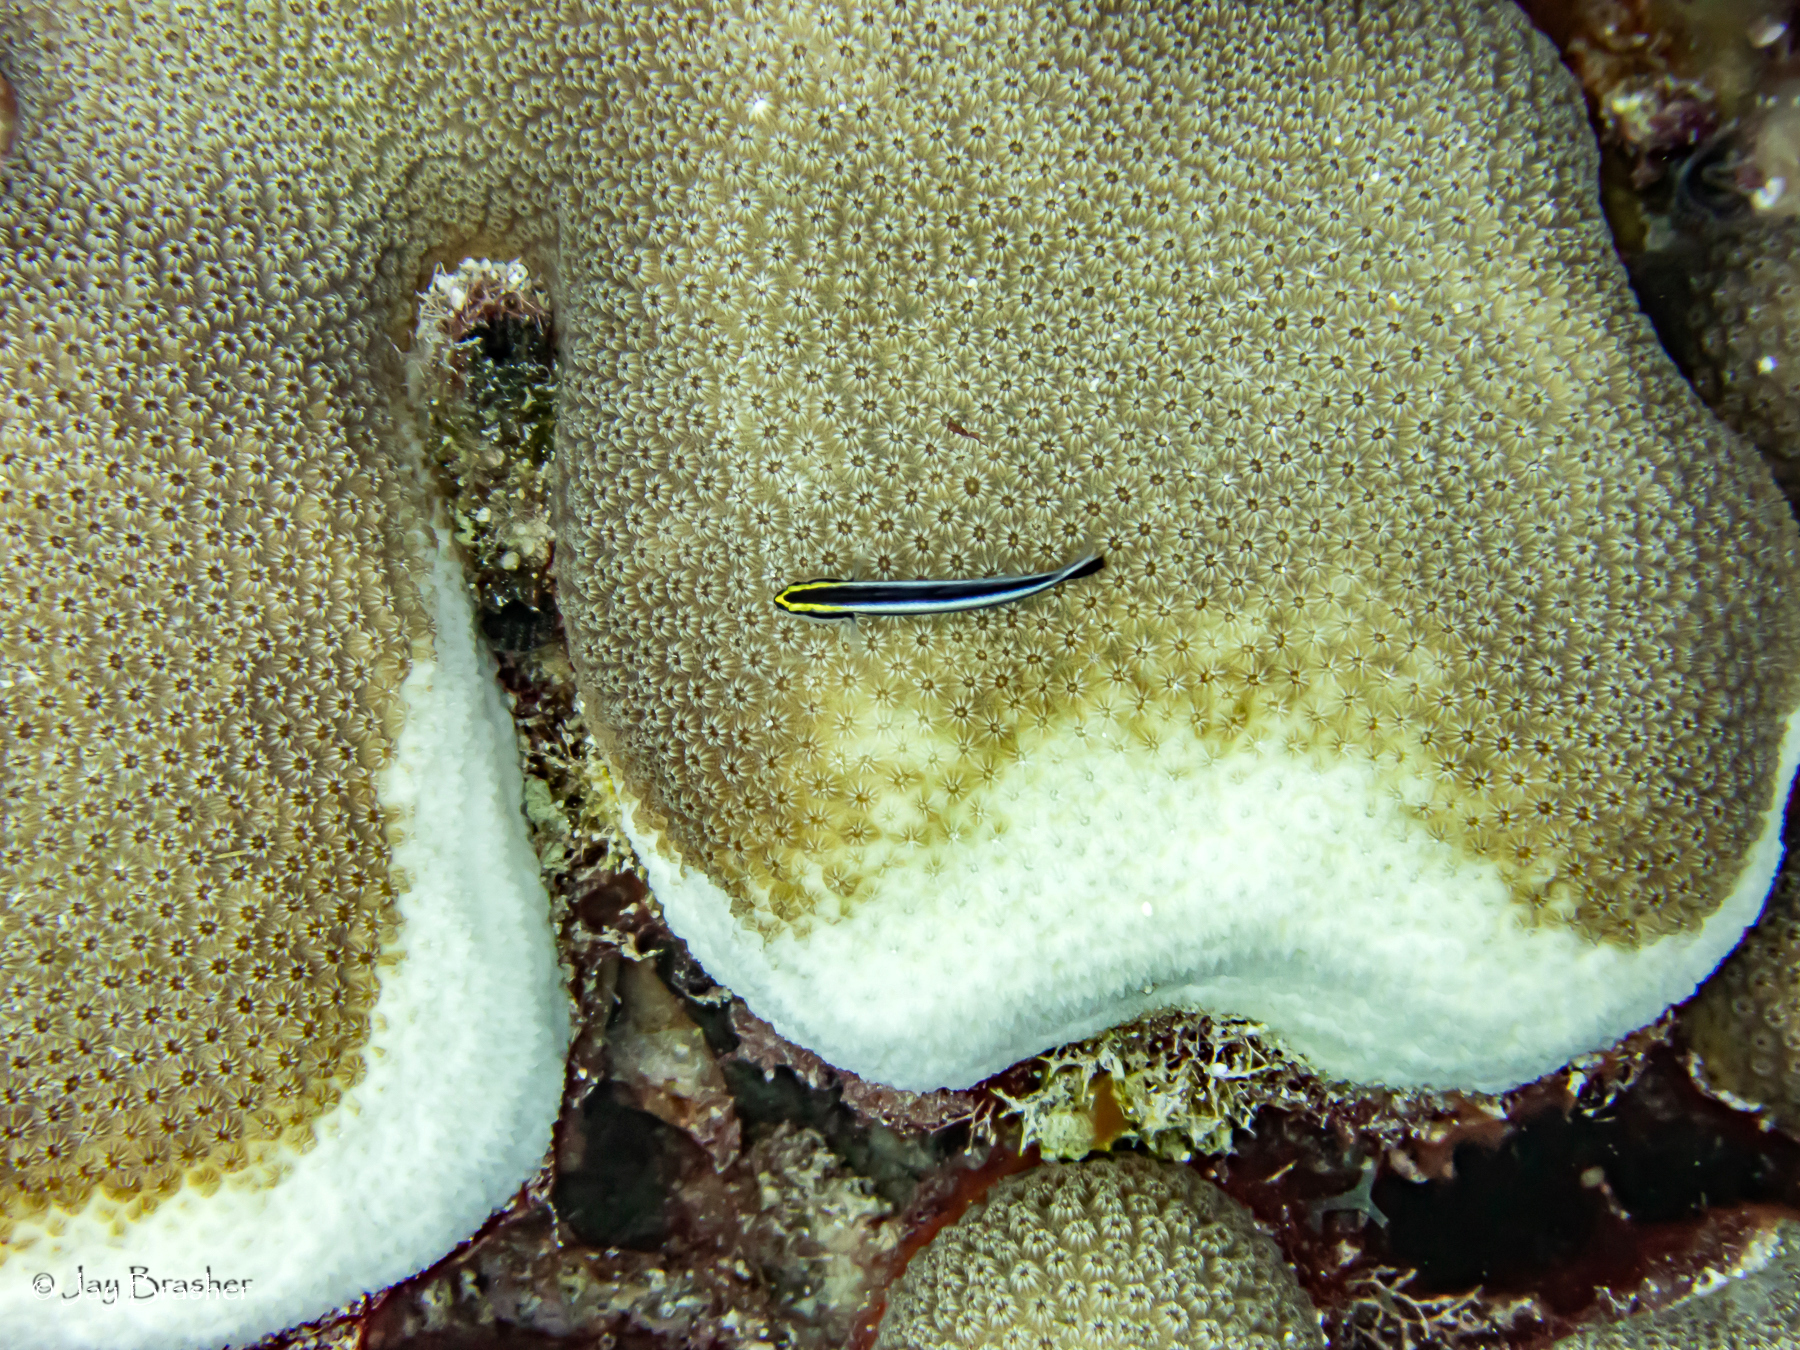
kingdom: Animalia
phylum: Chordata
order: Perciformes
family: Gobiidae
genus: Elacatinus
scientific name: Elacatinus evelynae
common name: Sharknose goby
